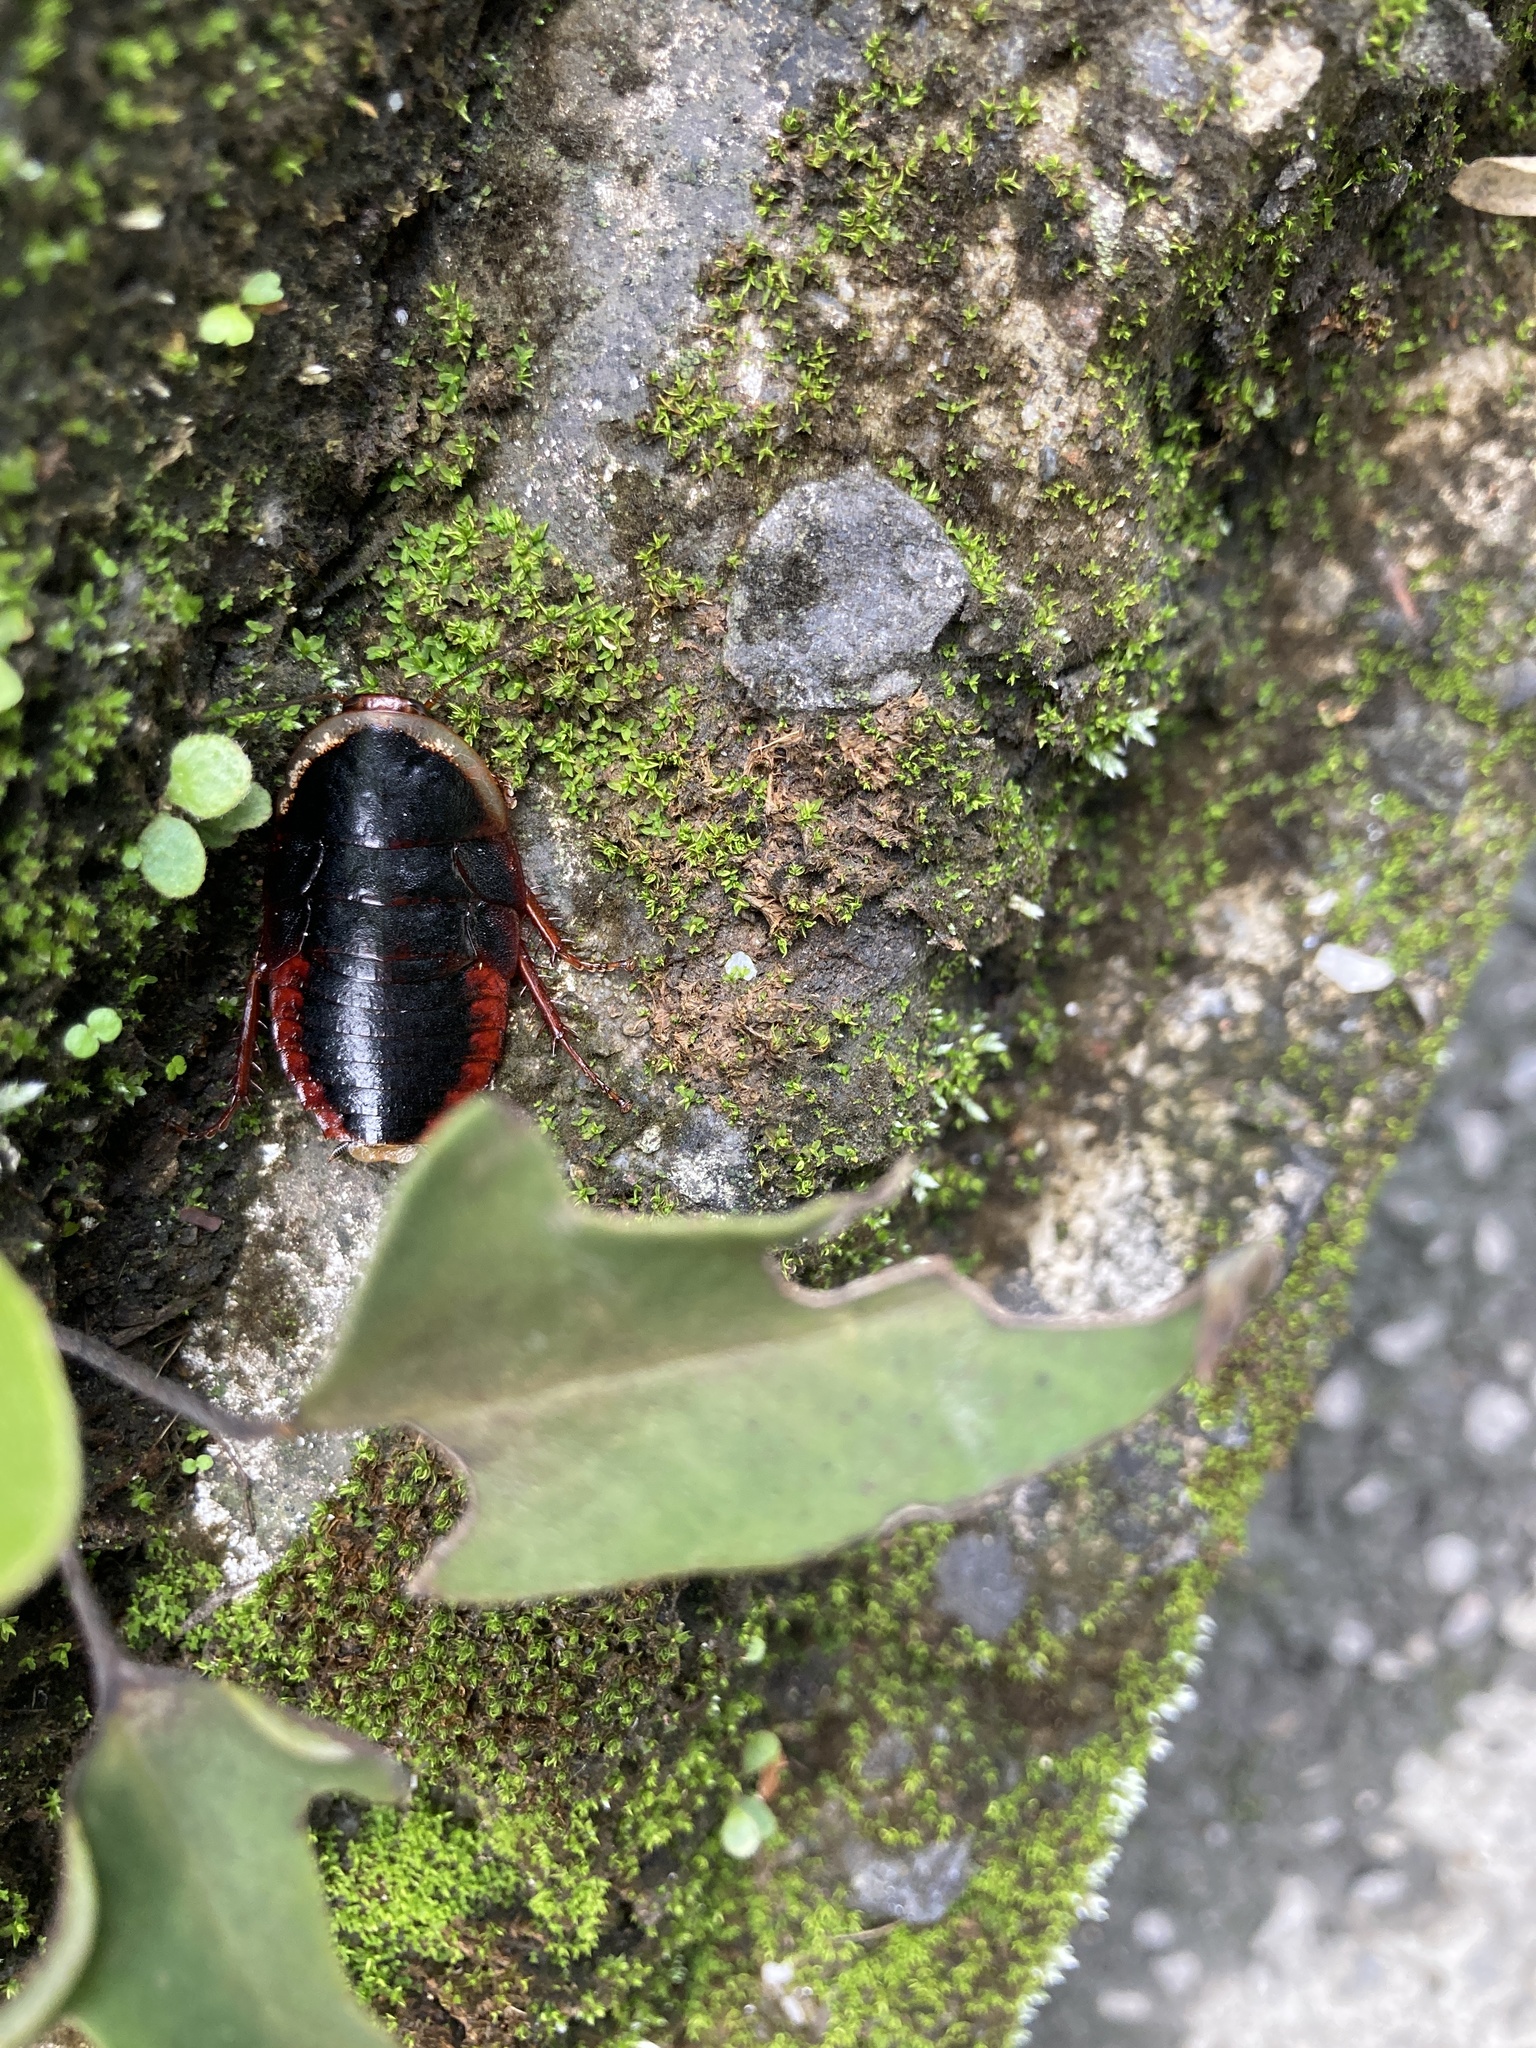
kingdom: Animalia
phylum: Arthropoda
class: Insecta
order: Blattodea
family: Blaberidae
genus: Opisthoplatia
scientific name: Opisthoplatia orientalis
